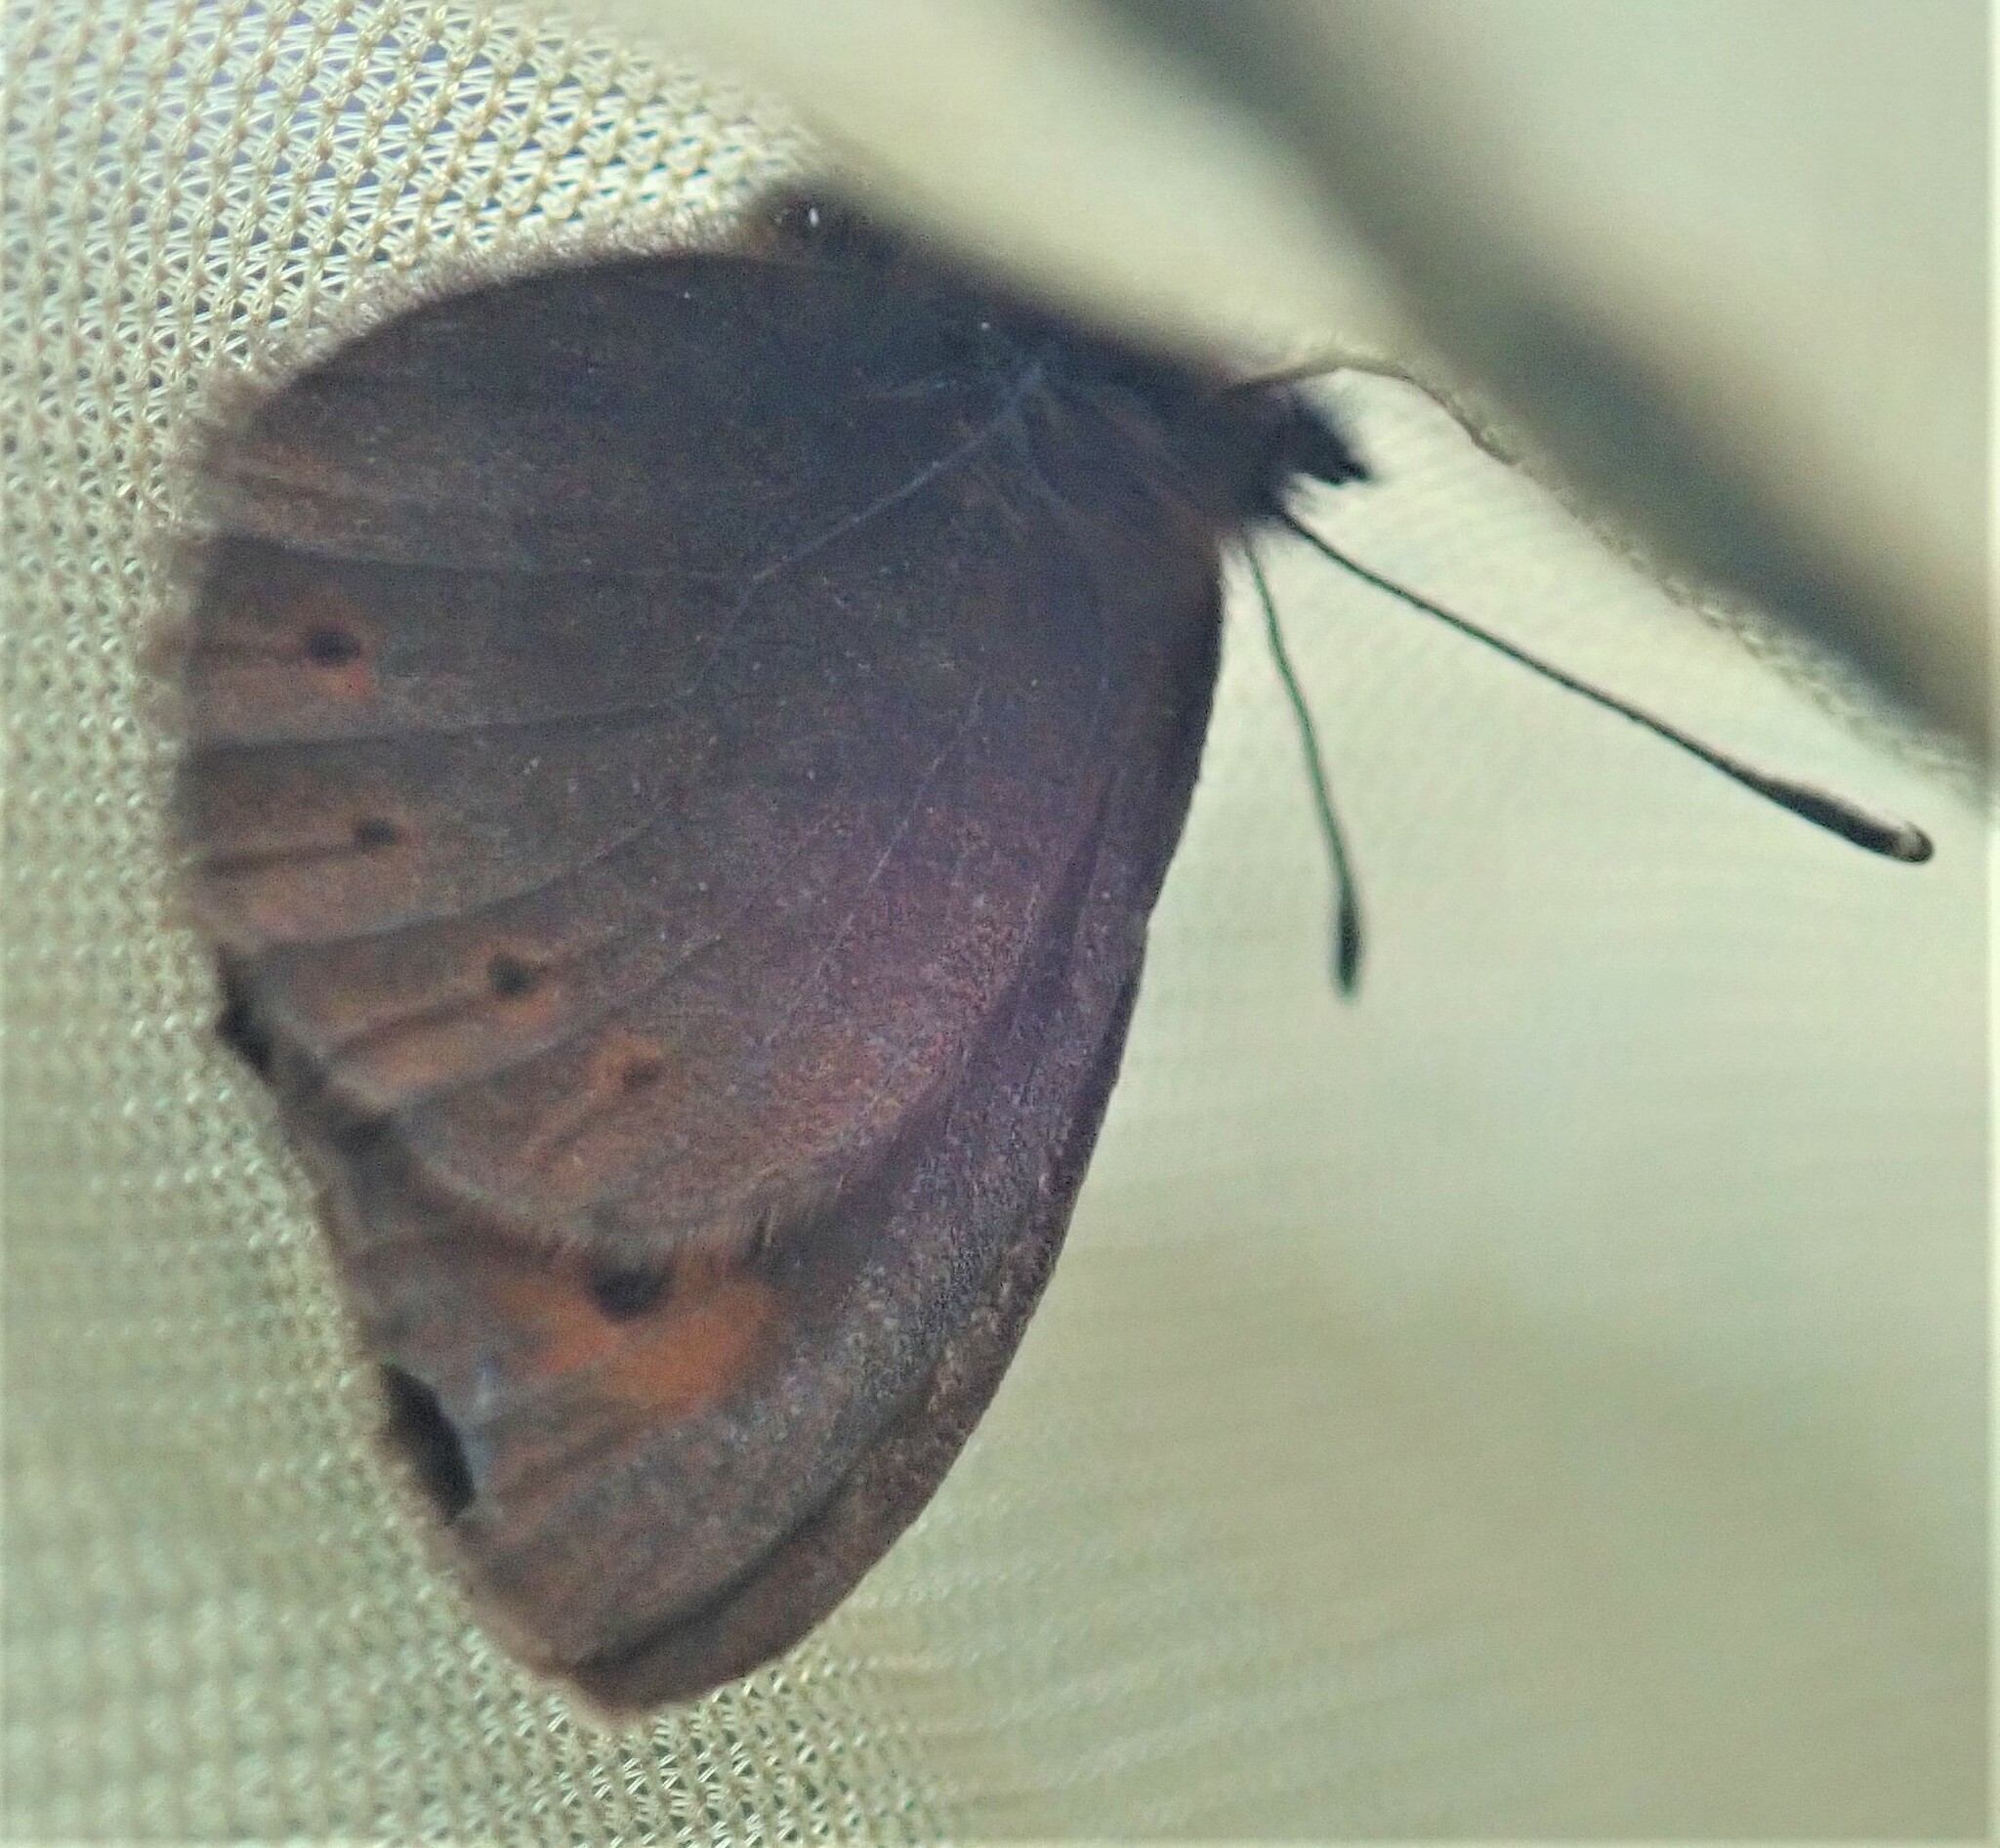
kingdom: Animalia
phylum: Arthropoda
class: Insecta
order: Lepidoptera
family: Nymphalidae
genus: Erebia
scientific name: Erebia epiphron
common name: Mountain ringlet
